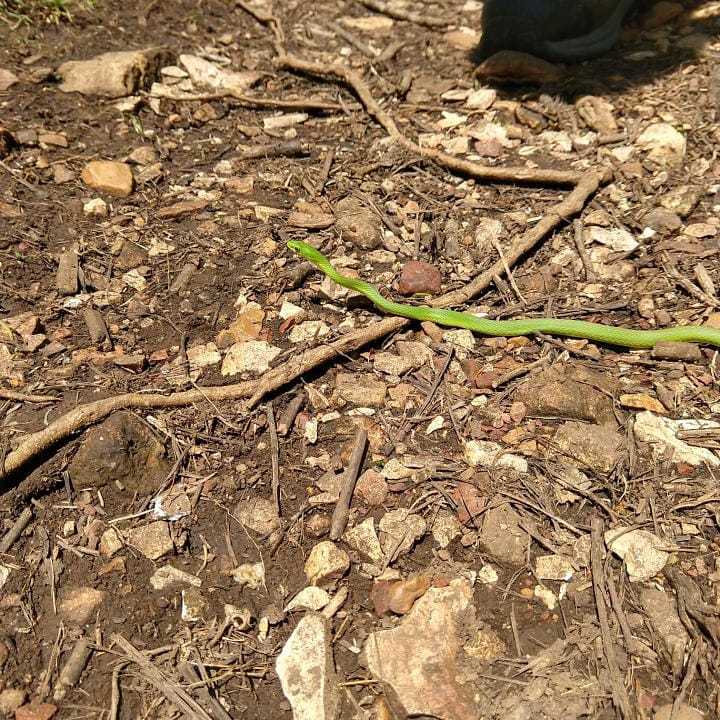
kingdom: Animalia
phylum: Chordata
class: Squamata
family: Colubridae
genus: Opheodrys
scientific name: Opheodrys aestivus
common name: Rough greensnake
